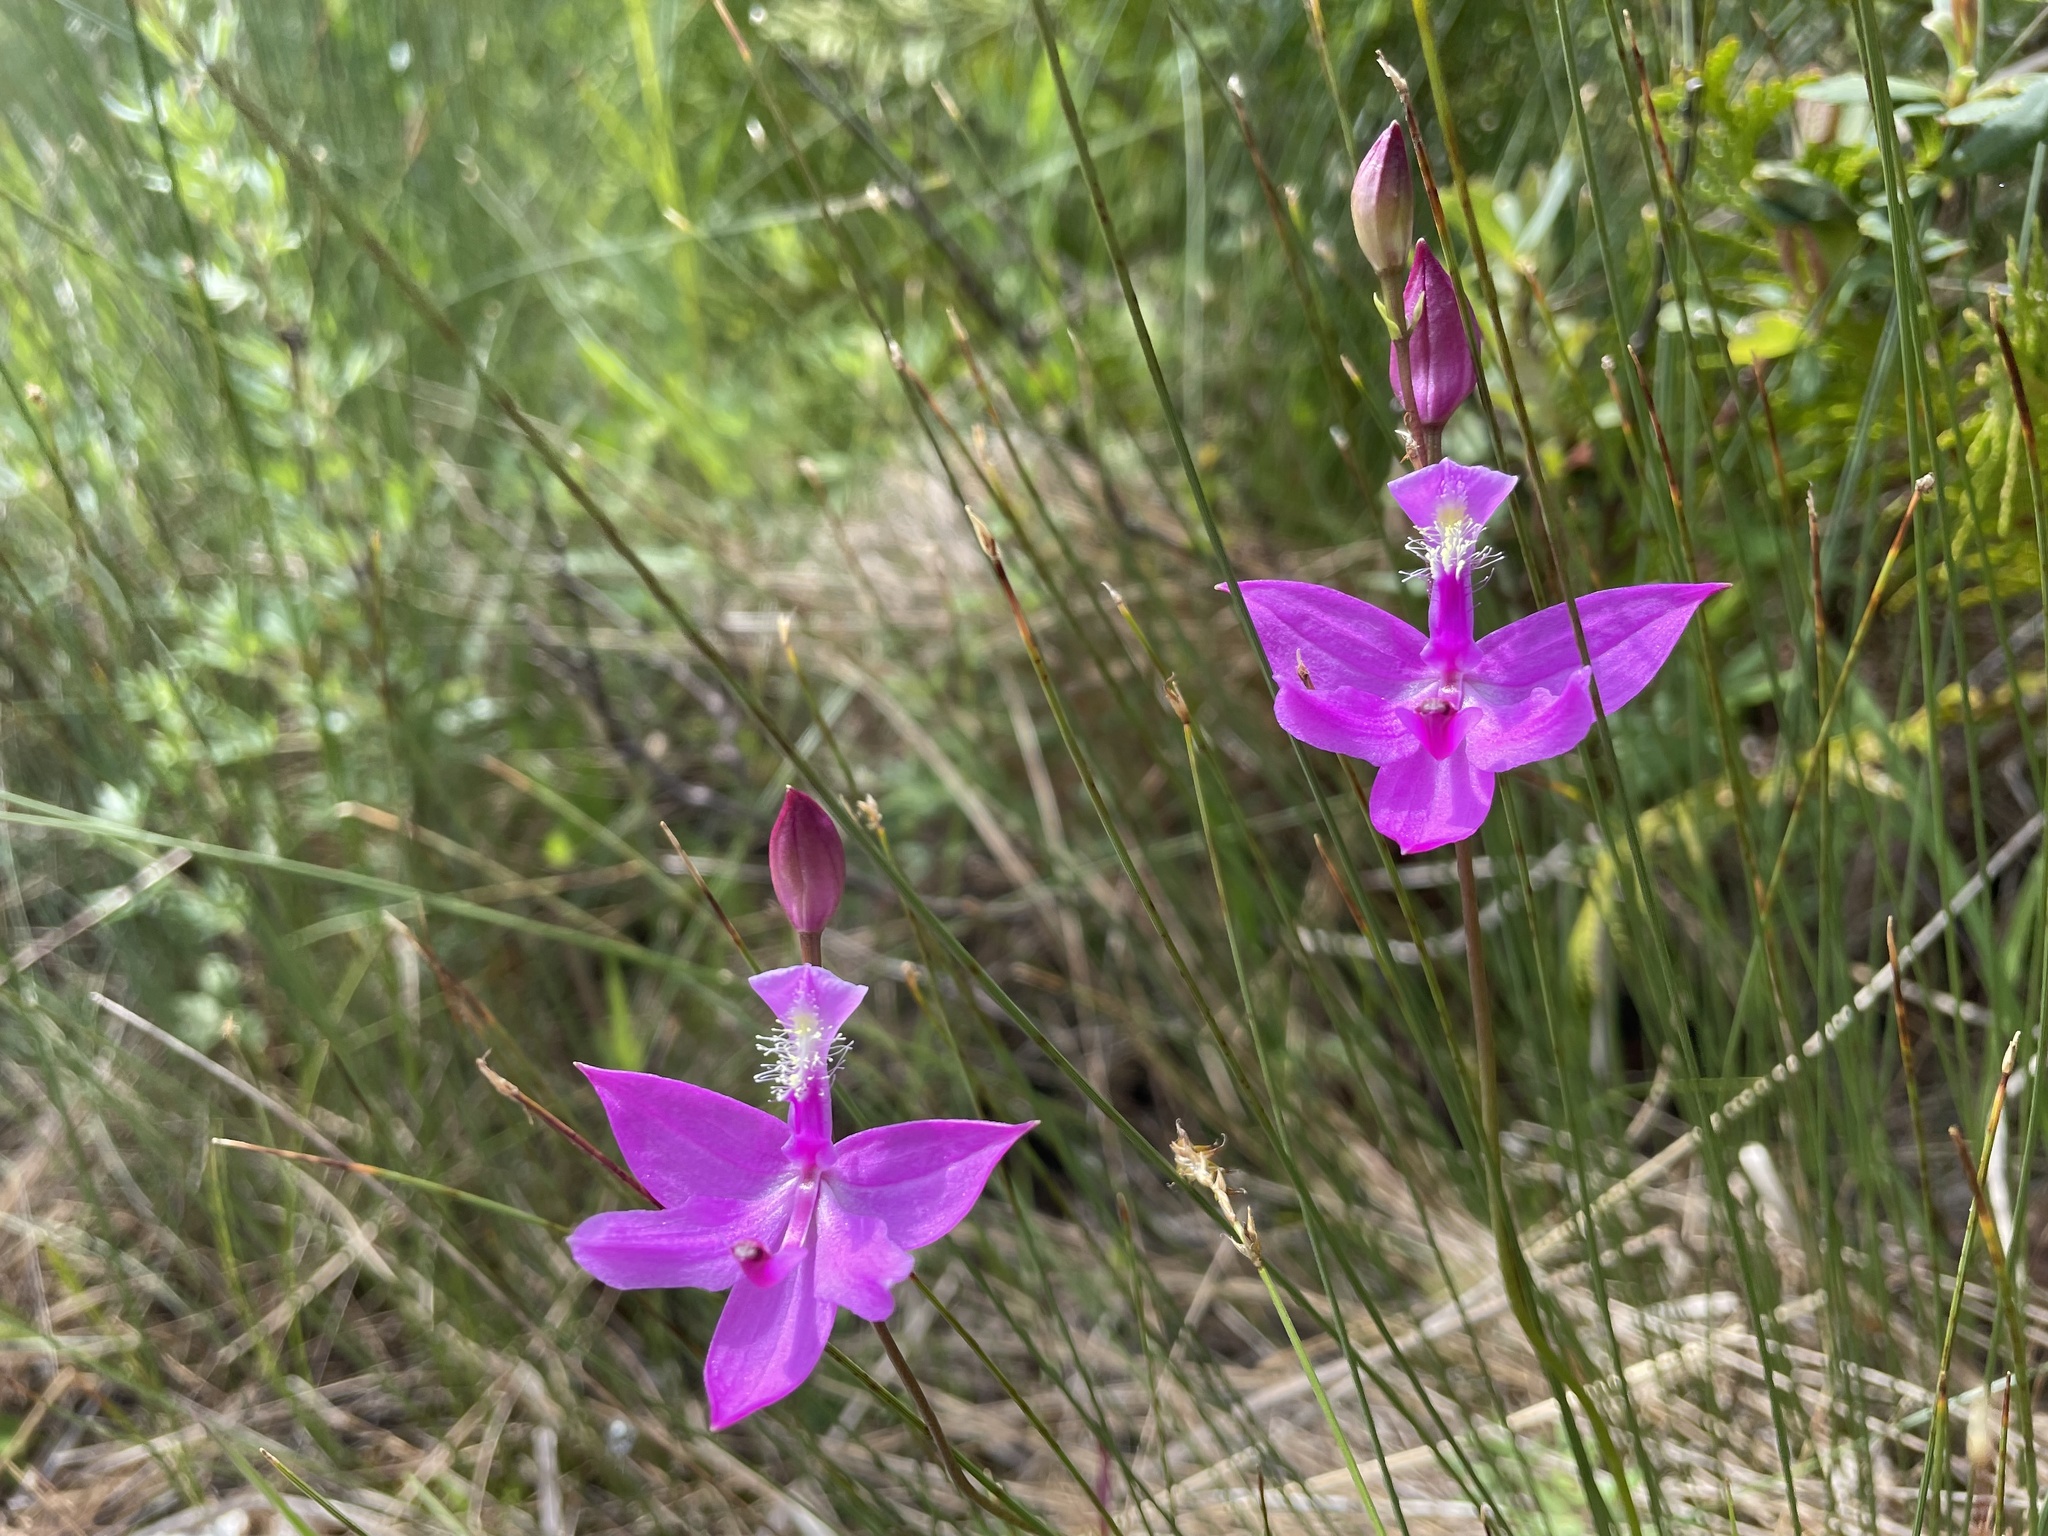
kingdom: Plantae
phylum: Tracheophyta
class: Liliopsida
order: Asparagales
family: Orchidaceae
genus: Calopogon
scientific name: Calopogon tuberosus
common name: Grass-pink
